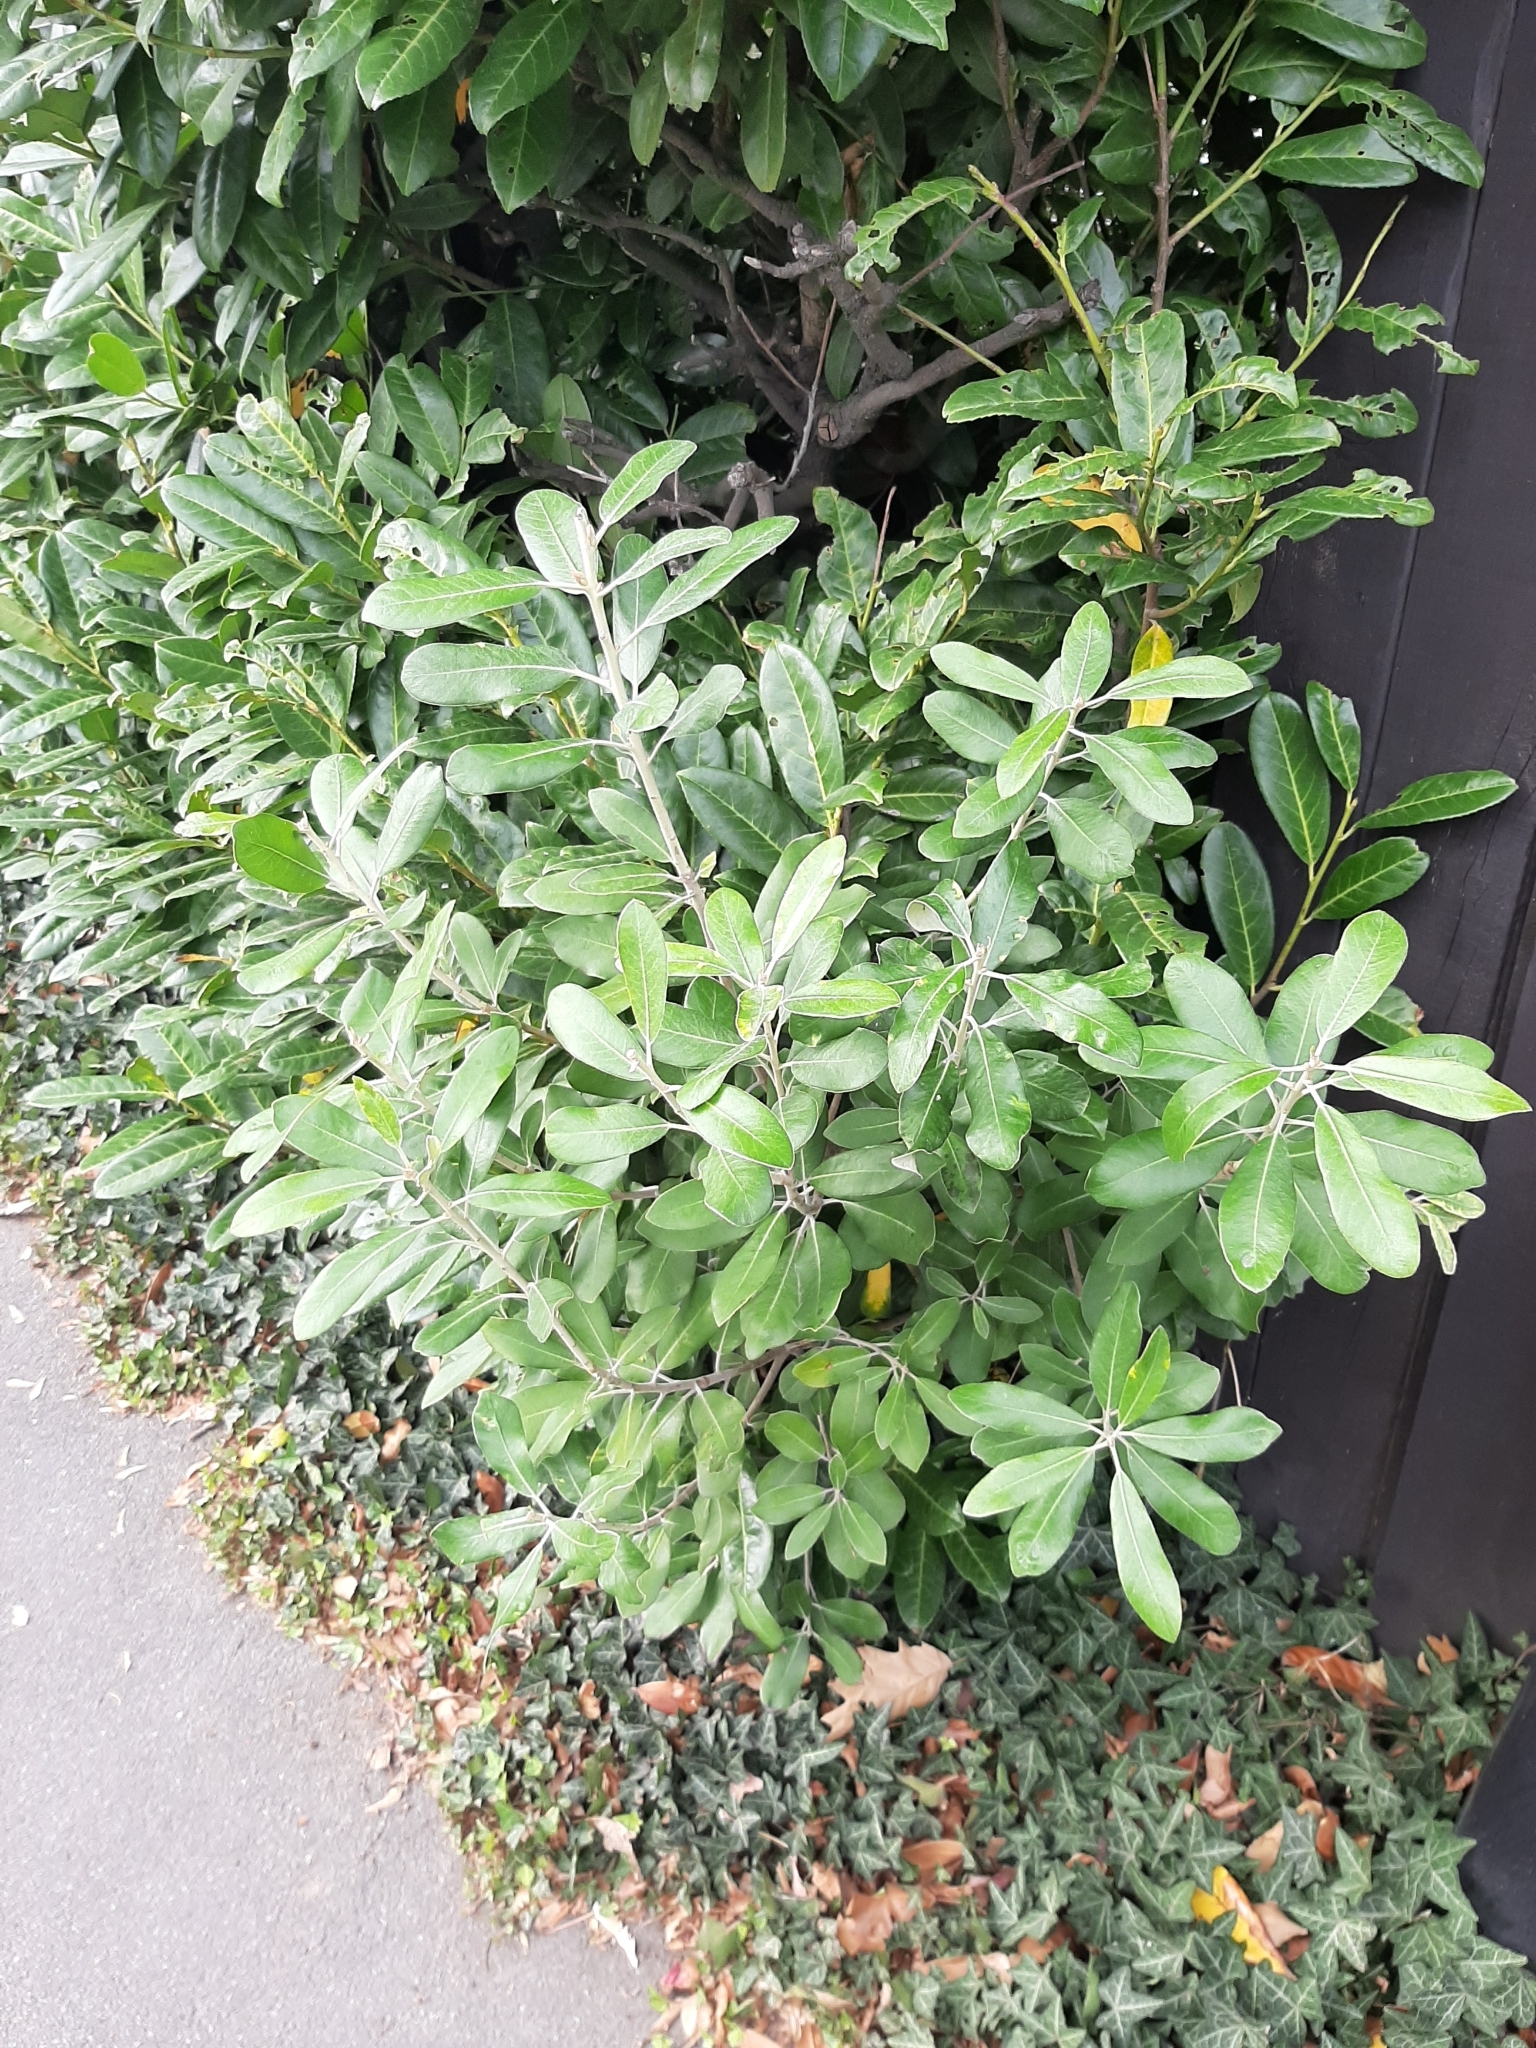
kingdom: Plantae
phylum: Tracheophyta
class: Magnoliopsida
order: Apiales
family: Pittosporaceae
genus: Pittosporum
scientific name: Pittosporum ralphii
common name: Ralph's desertwillow
